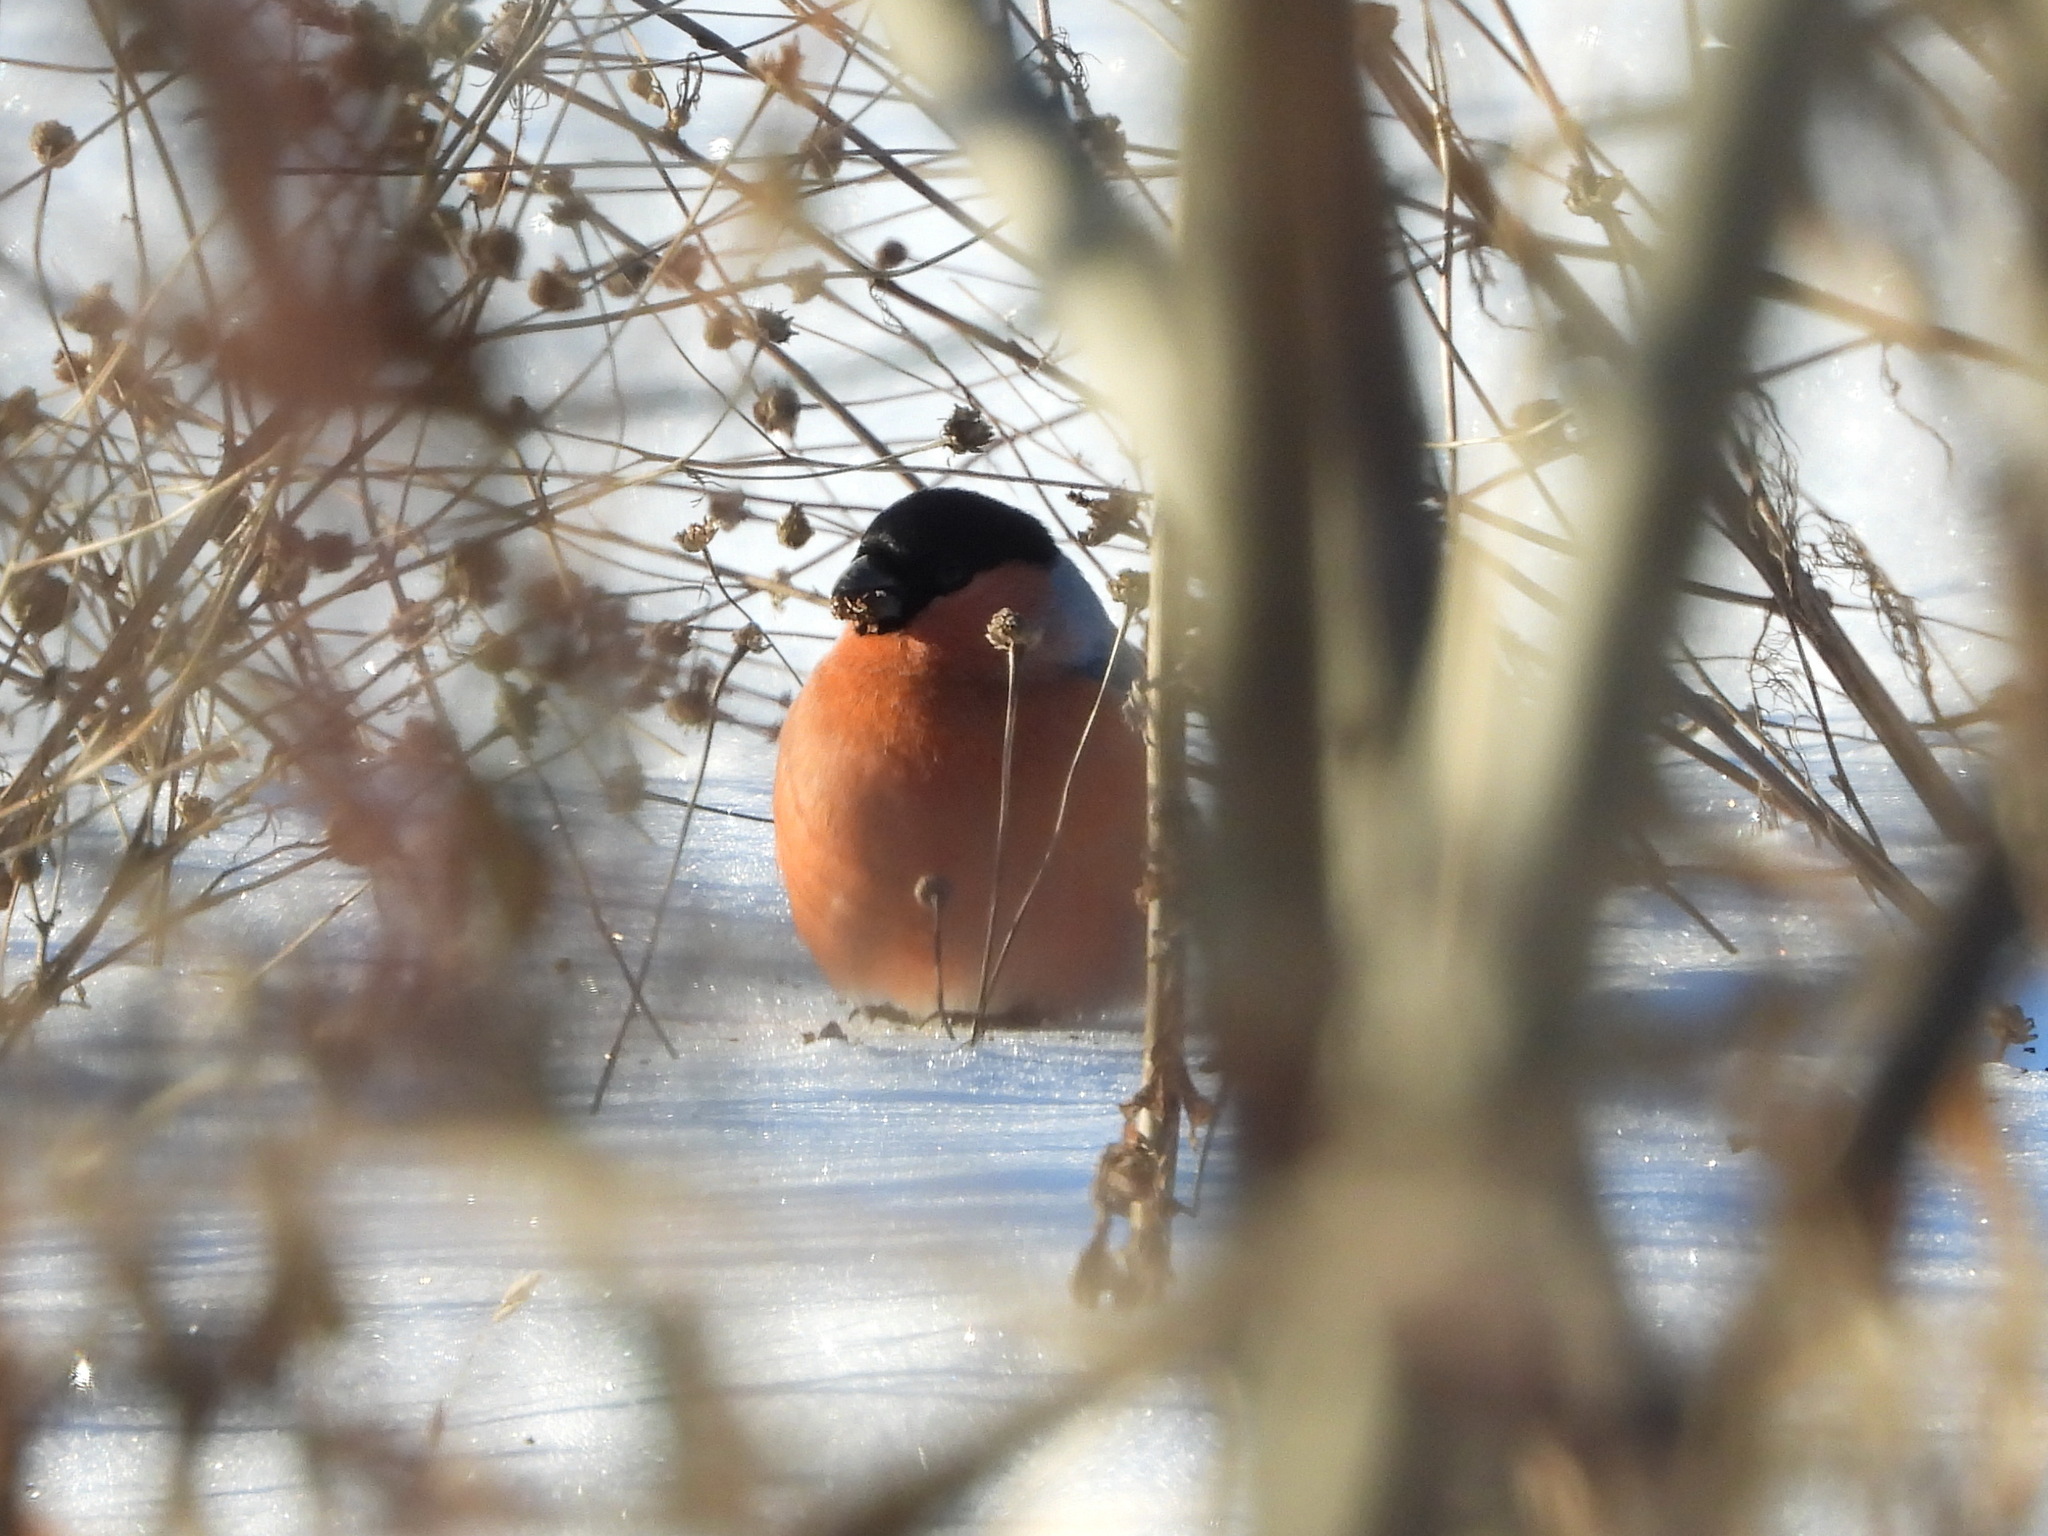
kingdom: Animalia
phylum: Chordata
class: Aves
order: Passeriformes
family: Fringillidae
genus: Pyrrhula
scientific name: Pyrrhula pyrrhula
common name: Eurasian bullfinch
